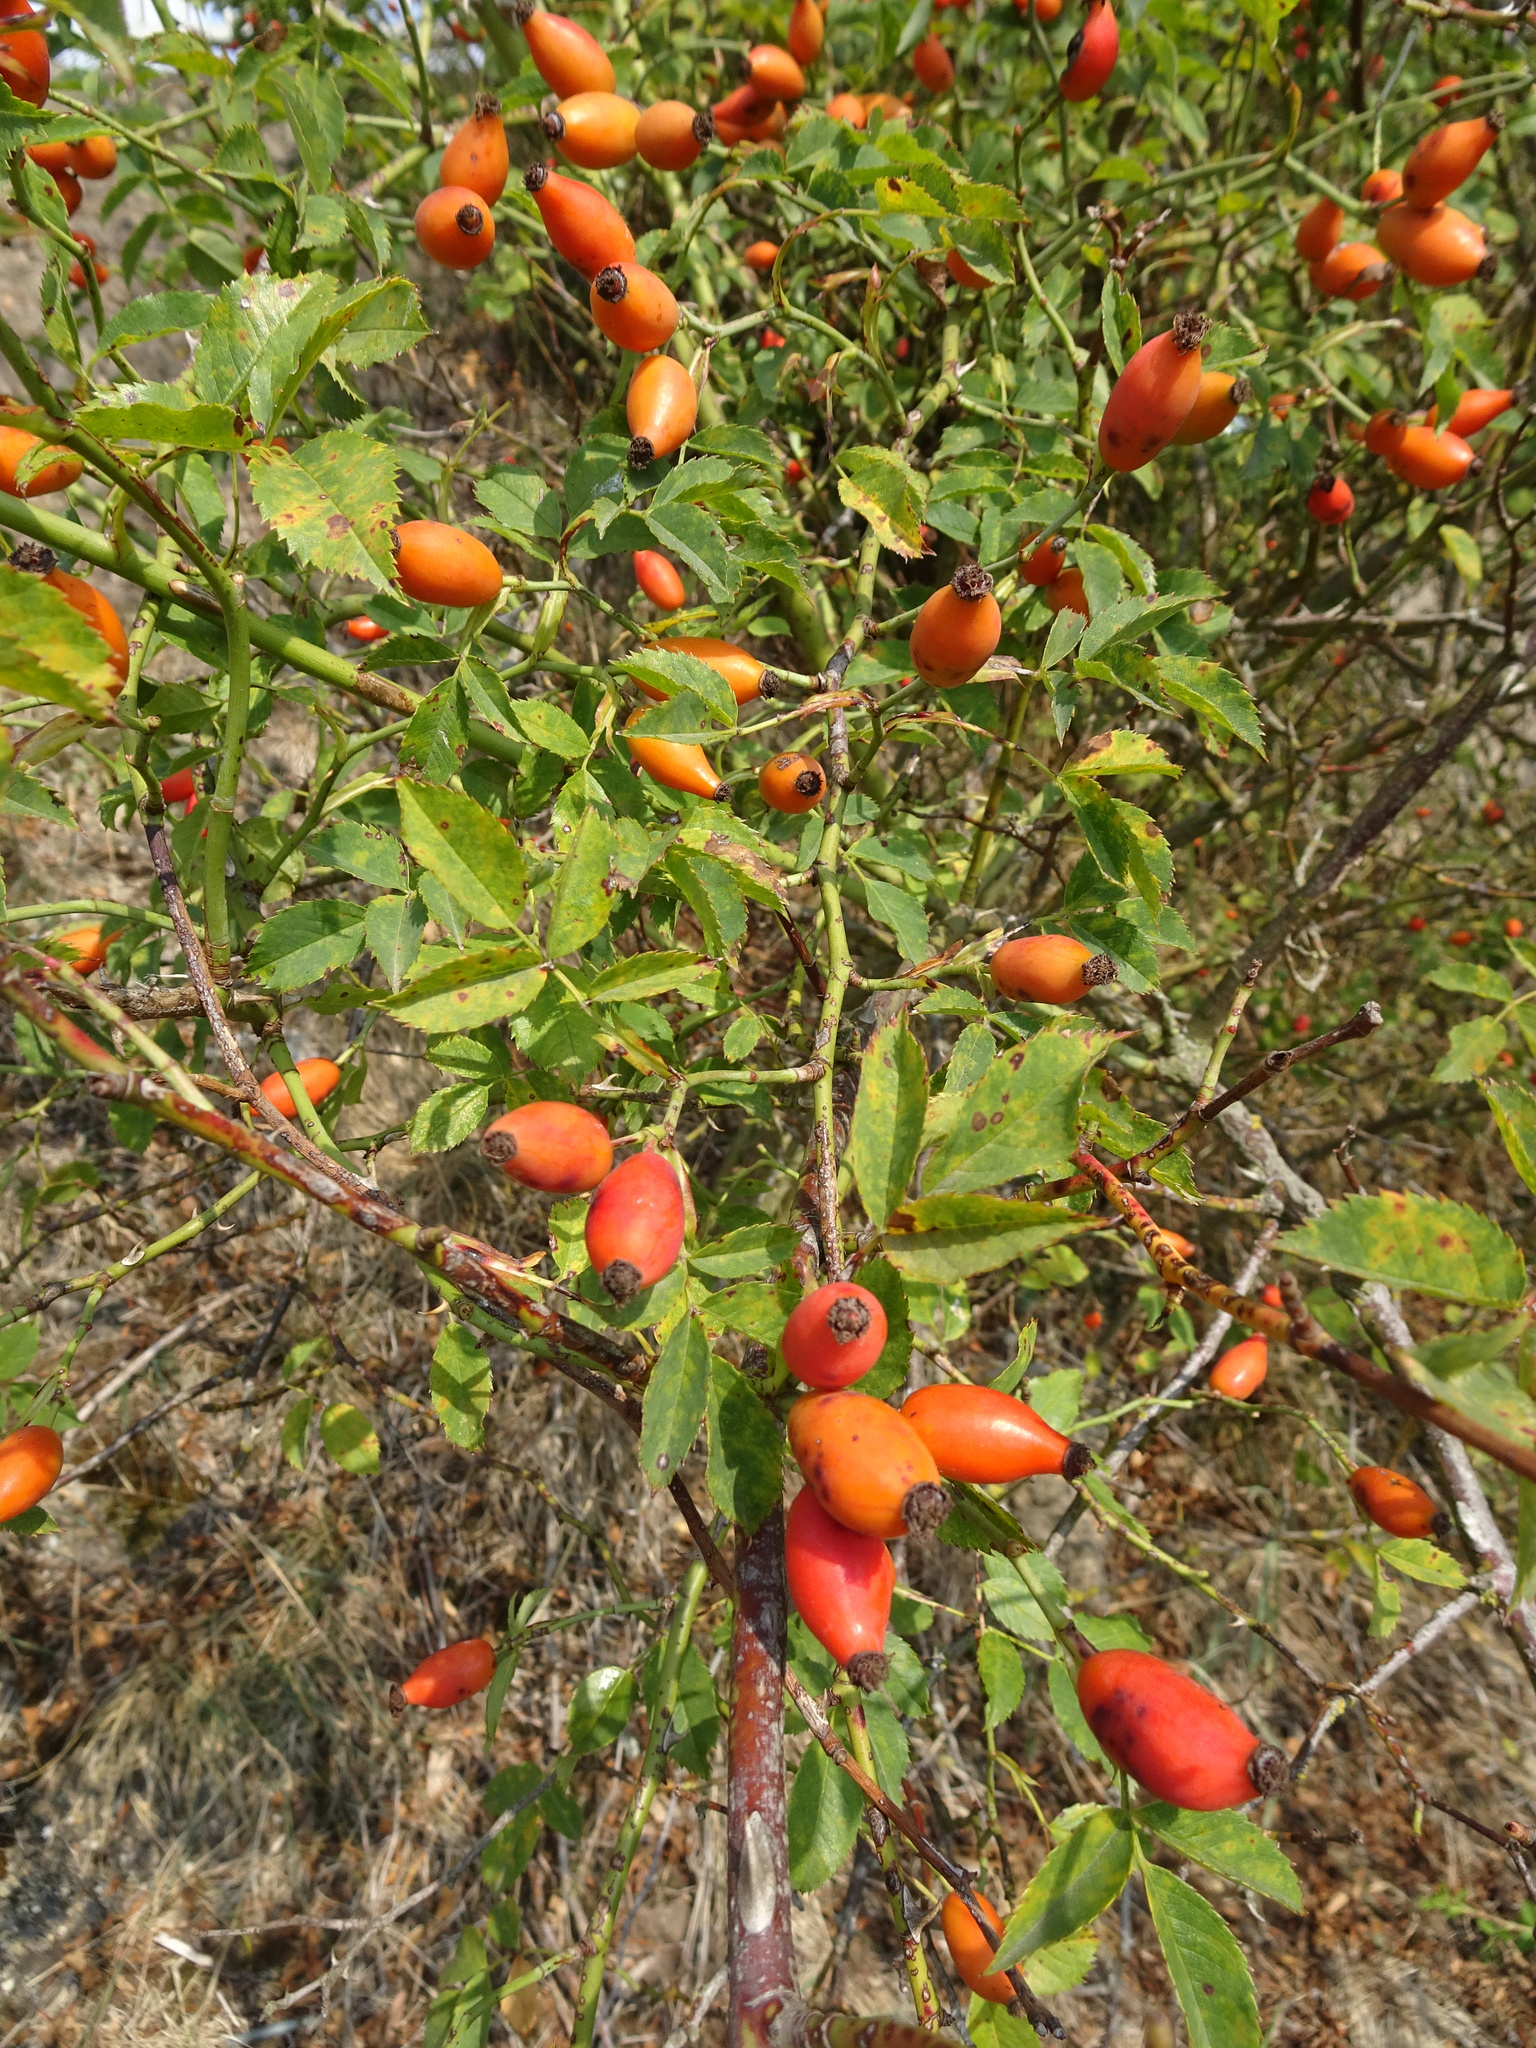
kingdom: Plantae
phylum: Tracheophyta
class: Magnoliopsida
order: Rosales
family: Rosaceae
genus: Rosa
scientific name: Rosa canina
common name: Dog rose
